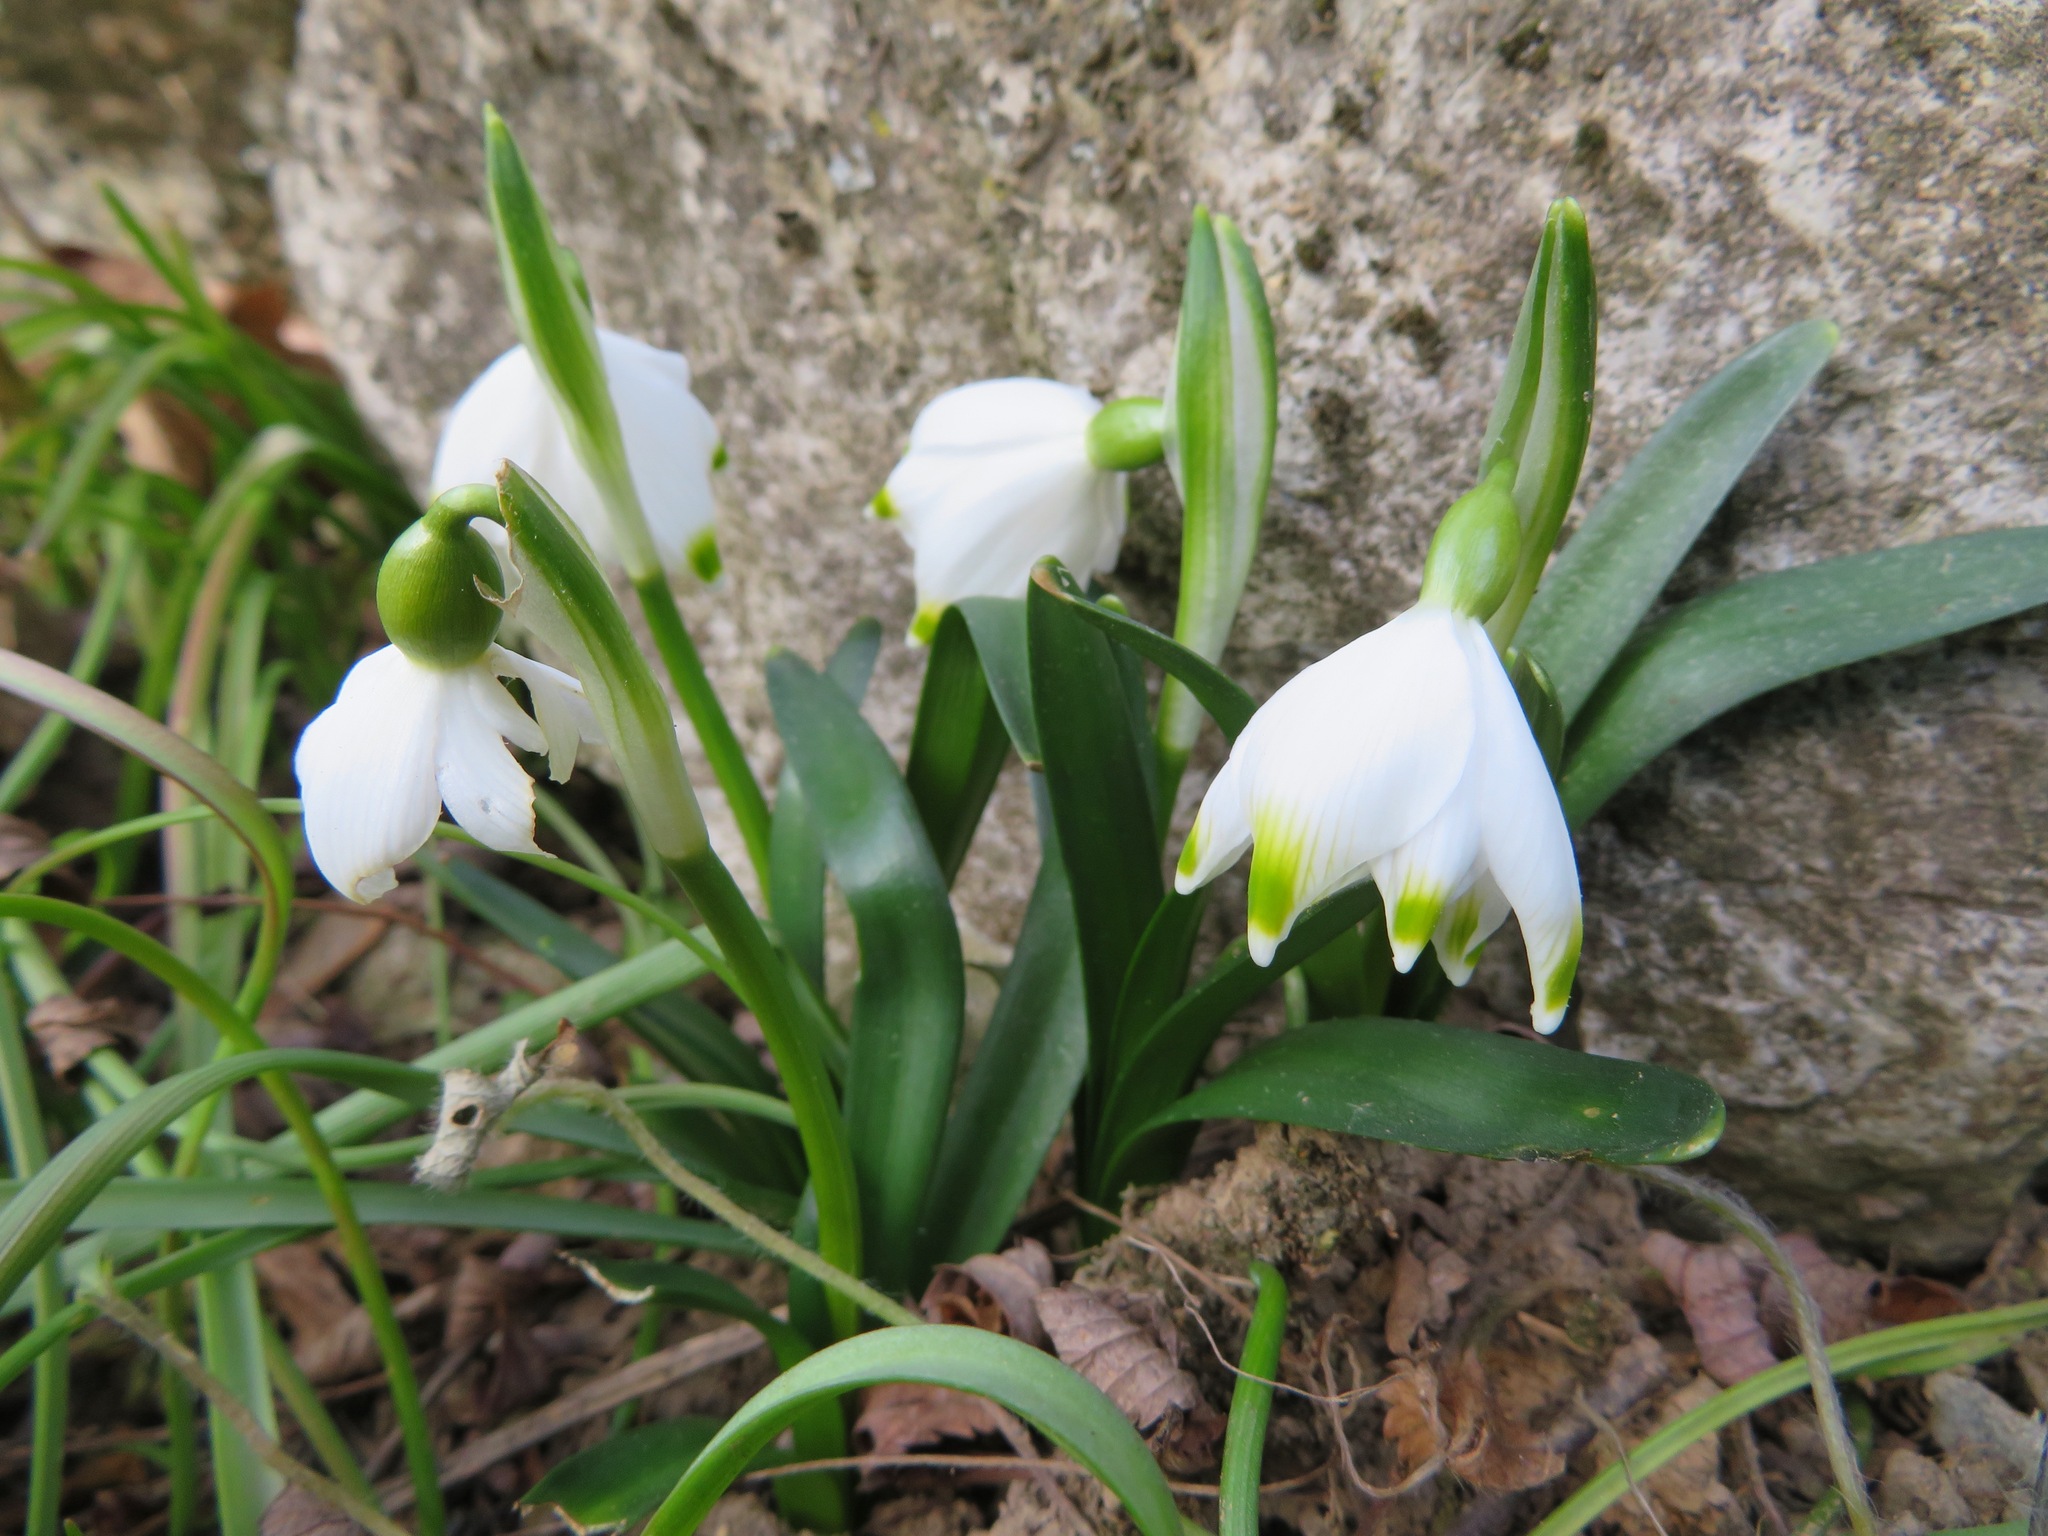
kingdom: Plantae
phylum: Tracheophyta
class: Liliopsida
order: Asparagales
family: Amaryllidaceae
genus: Leucojum
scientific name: Leucojum vernum
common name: Spring snowflake
